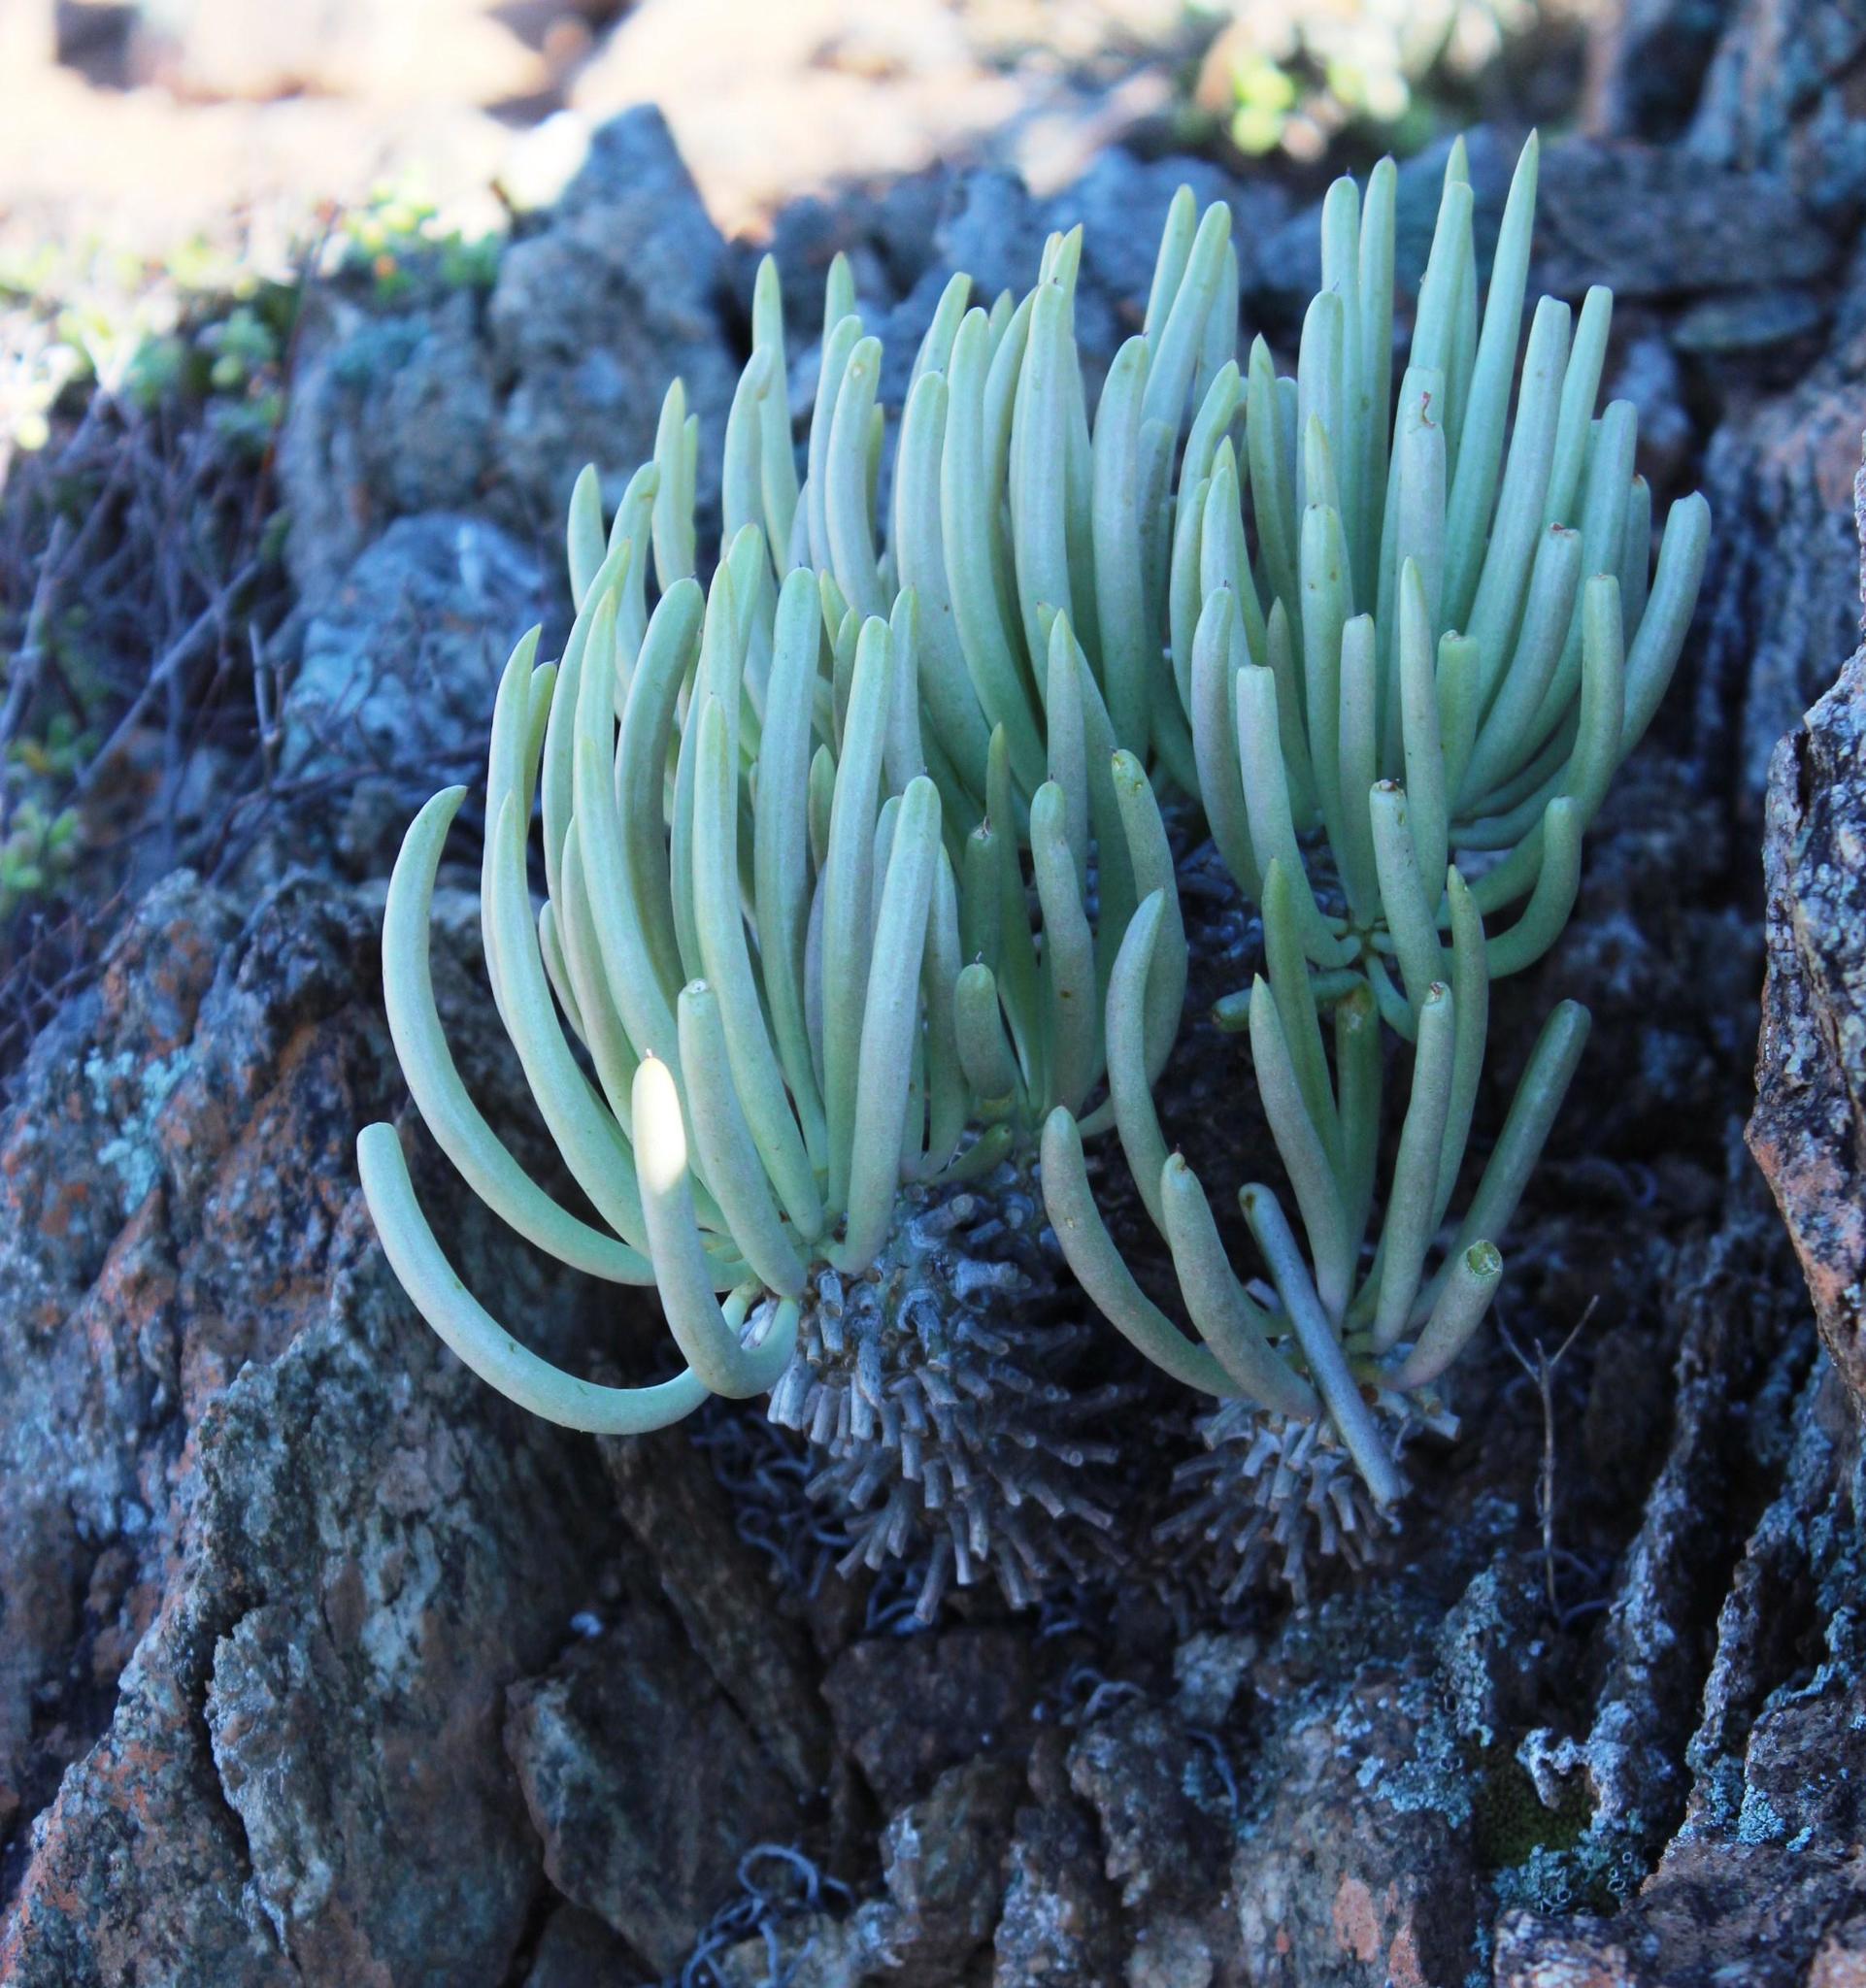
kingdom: Plantae
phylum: Tracheophyta
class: Magnoliopsida
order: Saxifragales
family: Crassulaceae
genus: Tylecodon
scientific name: Tylecodon wallichii
